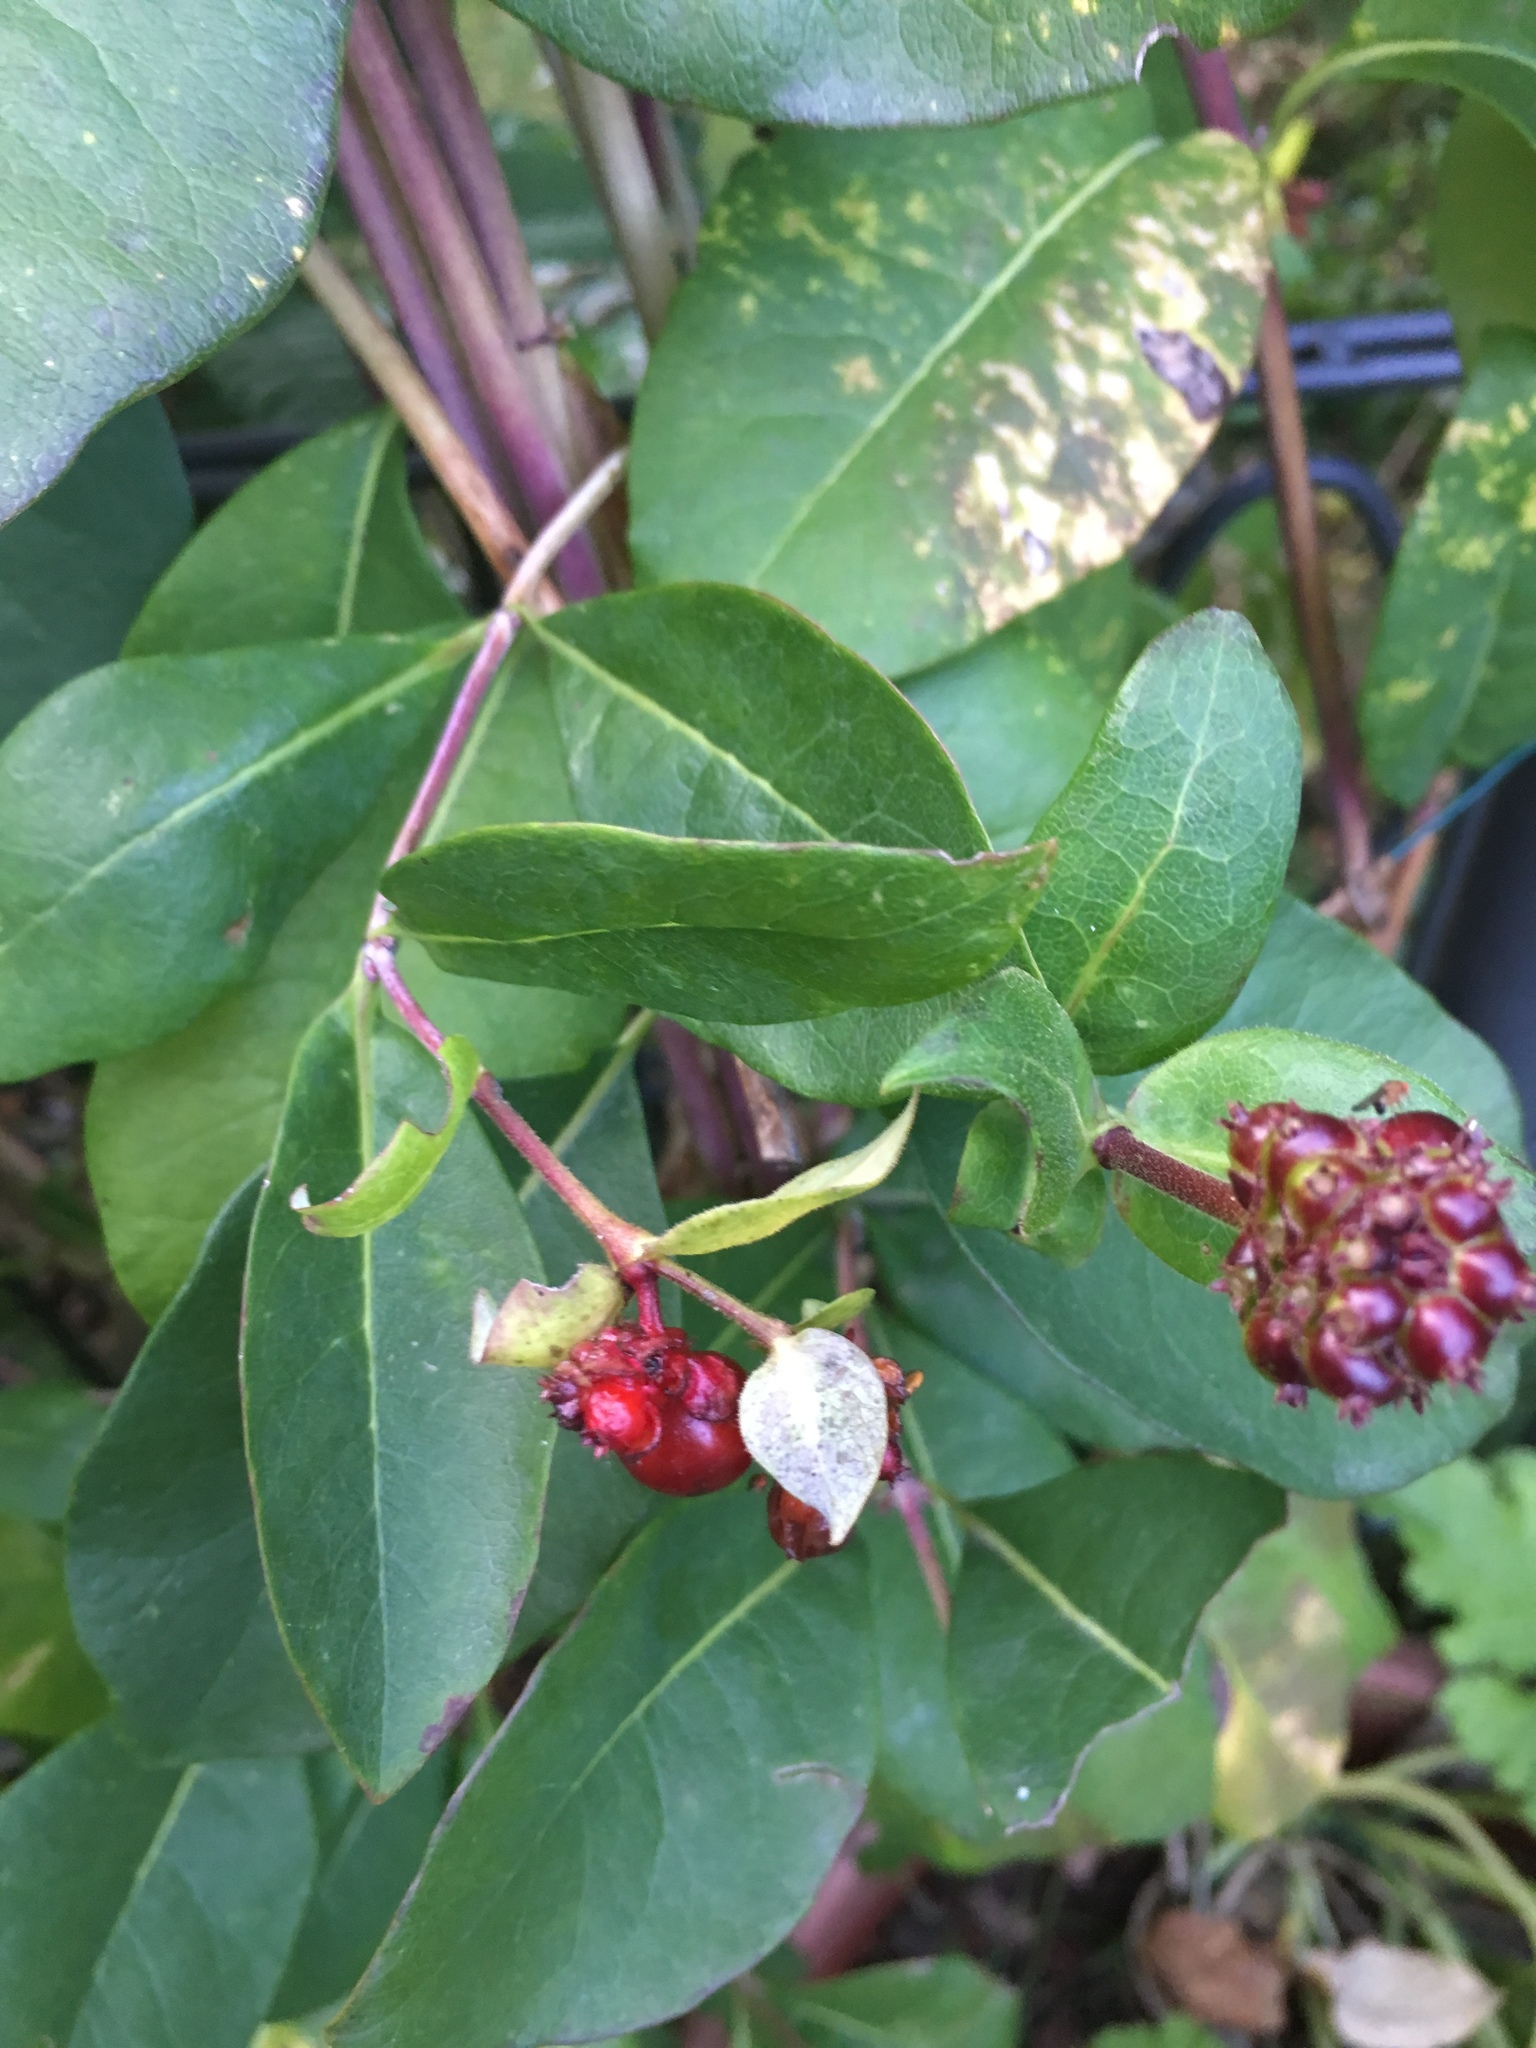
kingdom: Plantae
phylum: Tracheophyta
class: Magnoliopsida
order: Dipsacales
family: Caprifoliaceae
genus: Lonicera
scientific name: Lonicera periclymenum
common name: European honeysuckle
